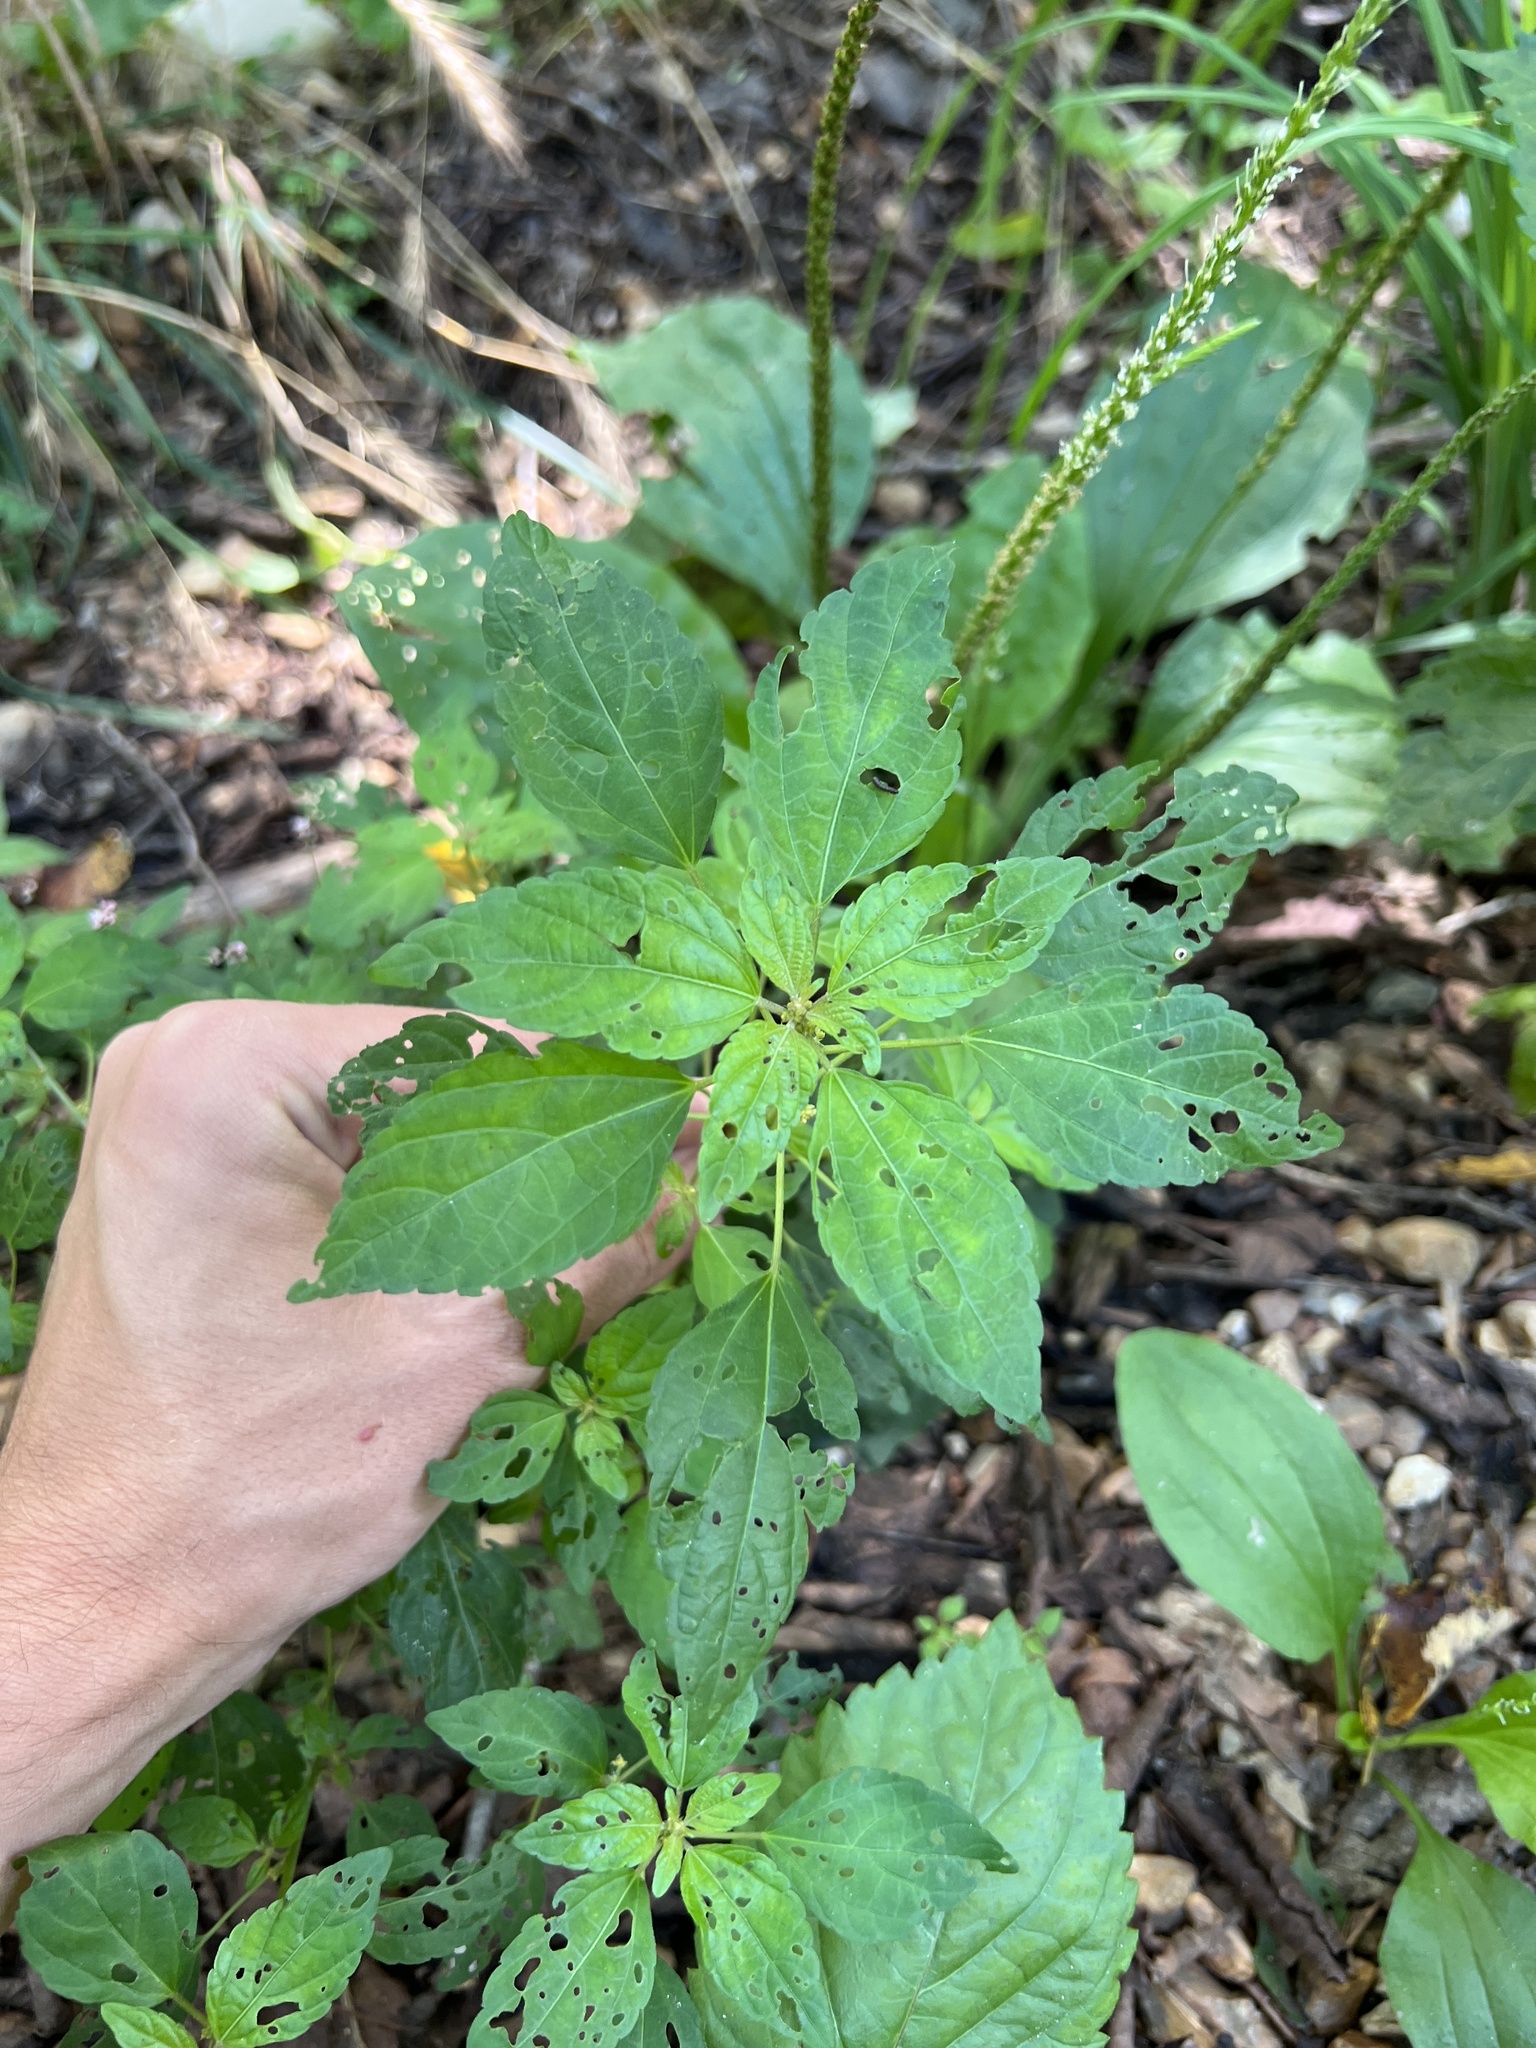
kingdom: Plantae
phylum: Tracheophyta
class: Magnoliopsida
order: Malpighiales
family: Euphorbiaceae
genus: Acalypha
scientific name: Acalypha rhomboidea
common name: Rhombic copperleaf
